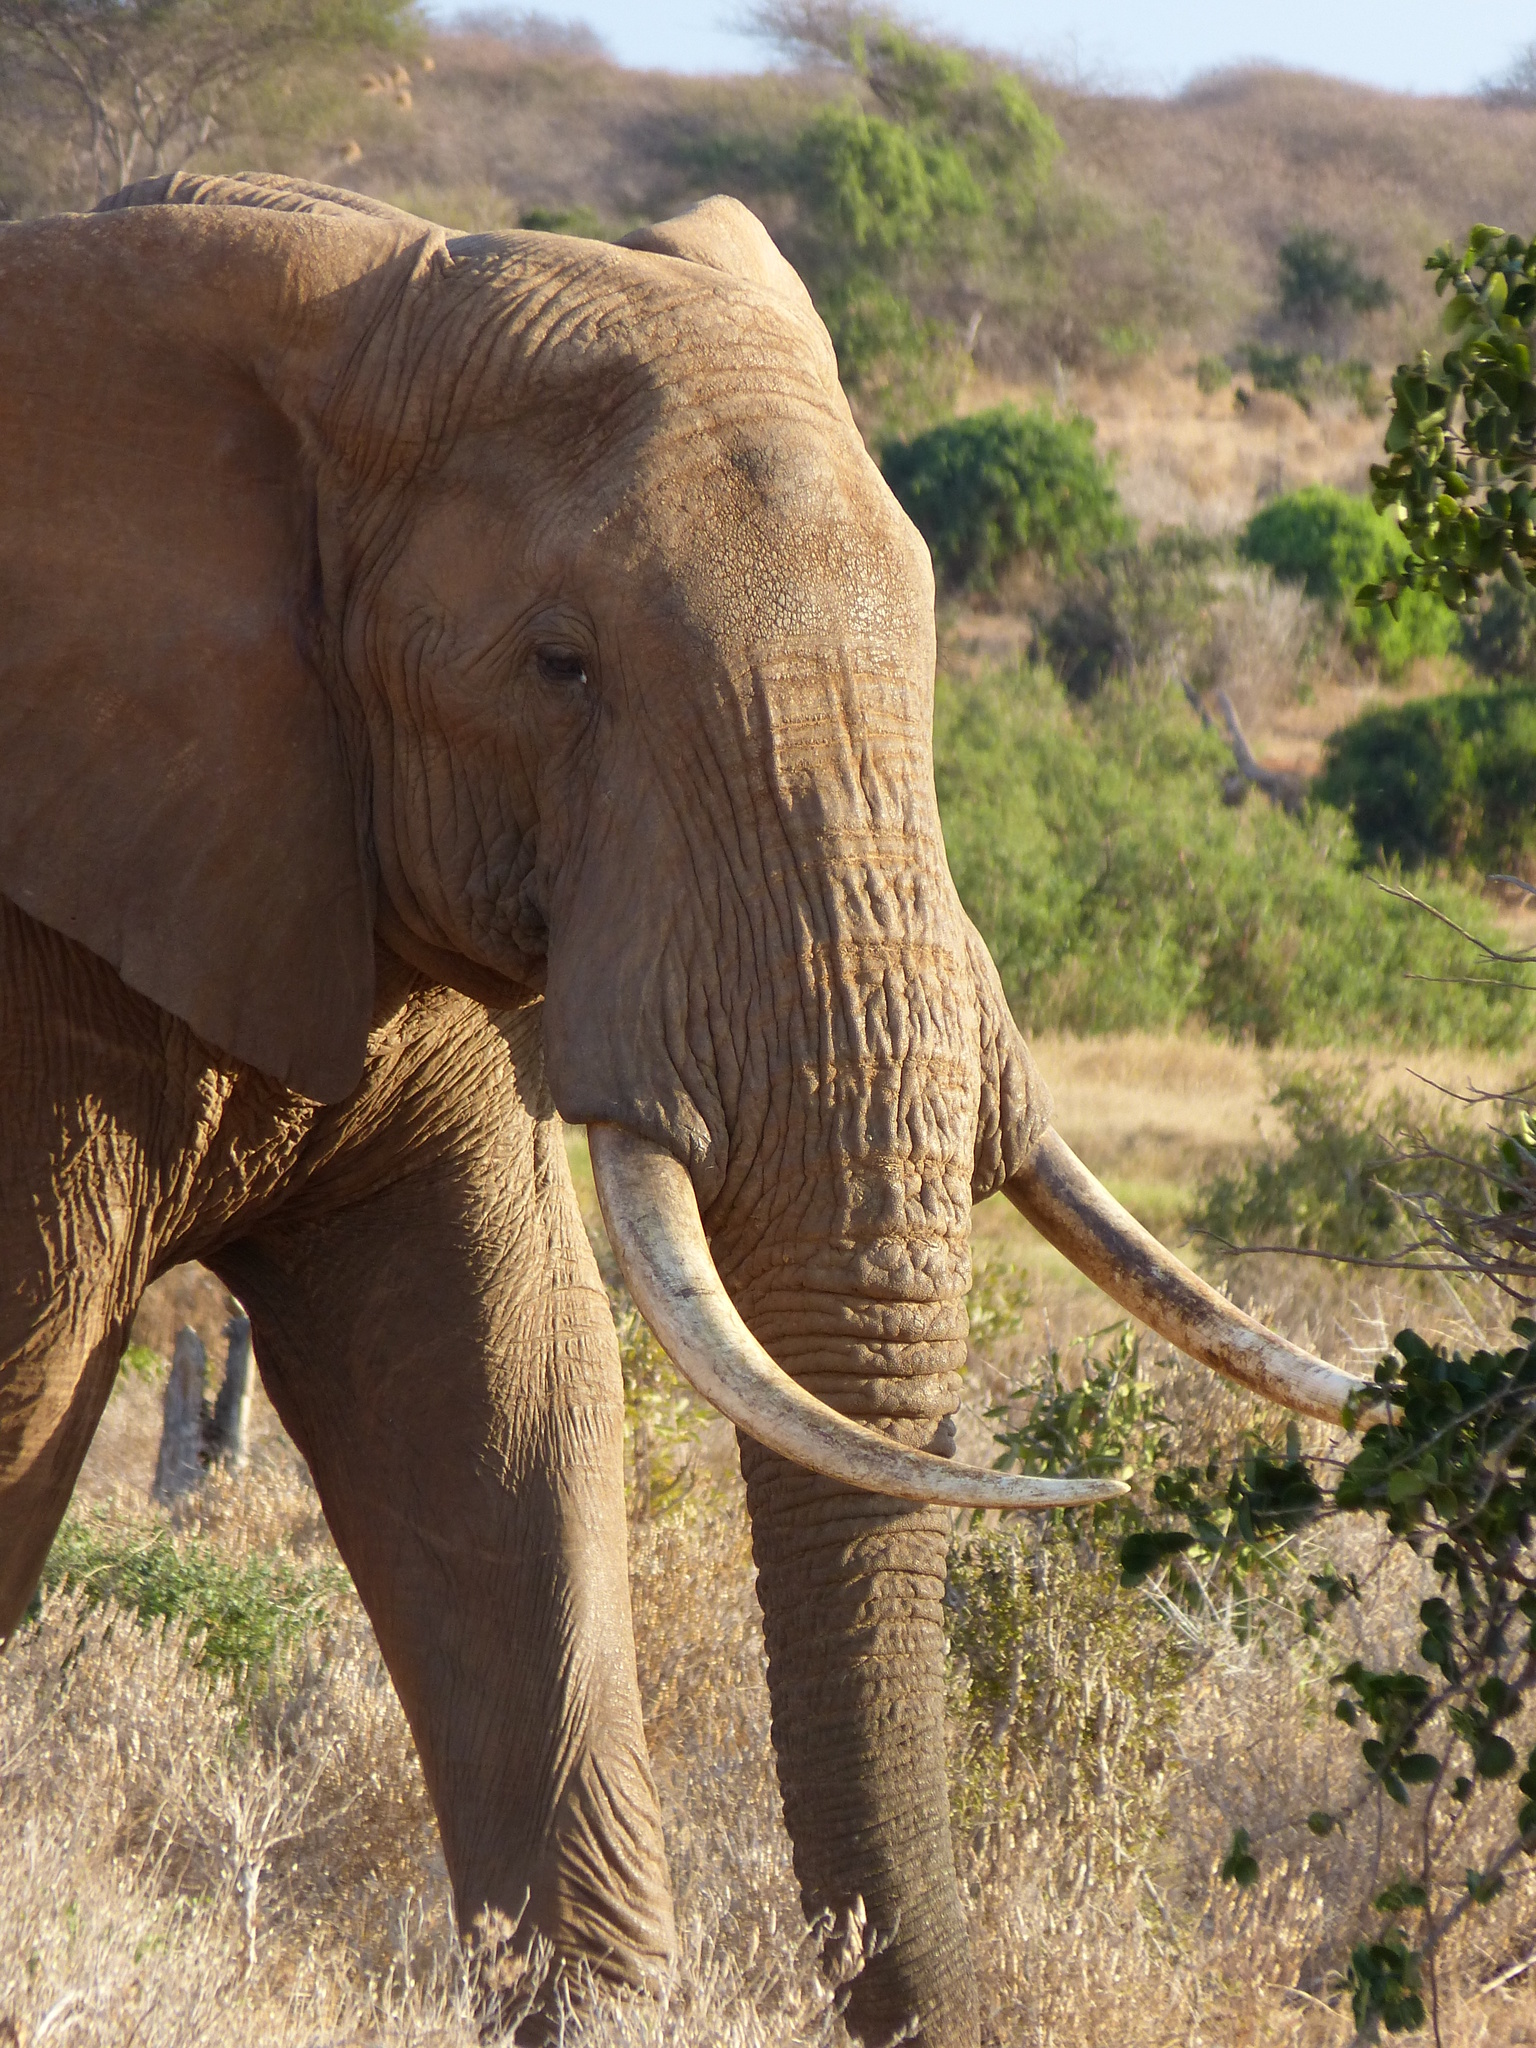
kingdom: Animalia
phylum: Chordata
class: Mammalia
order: Proboscidea
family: Elephantidae
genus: Loxodonta
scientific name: Loxodonta africana
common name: African elephant
